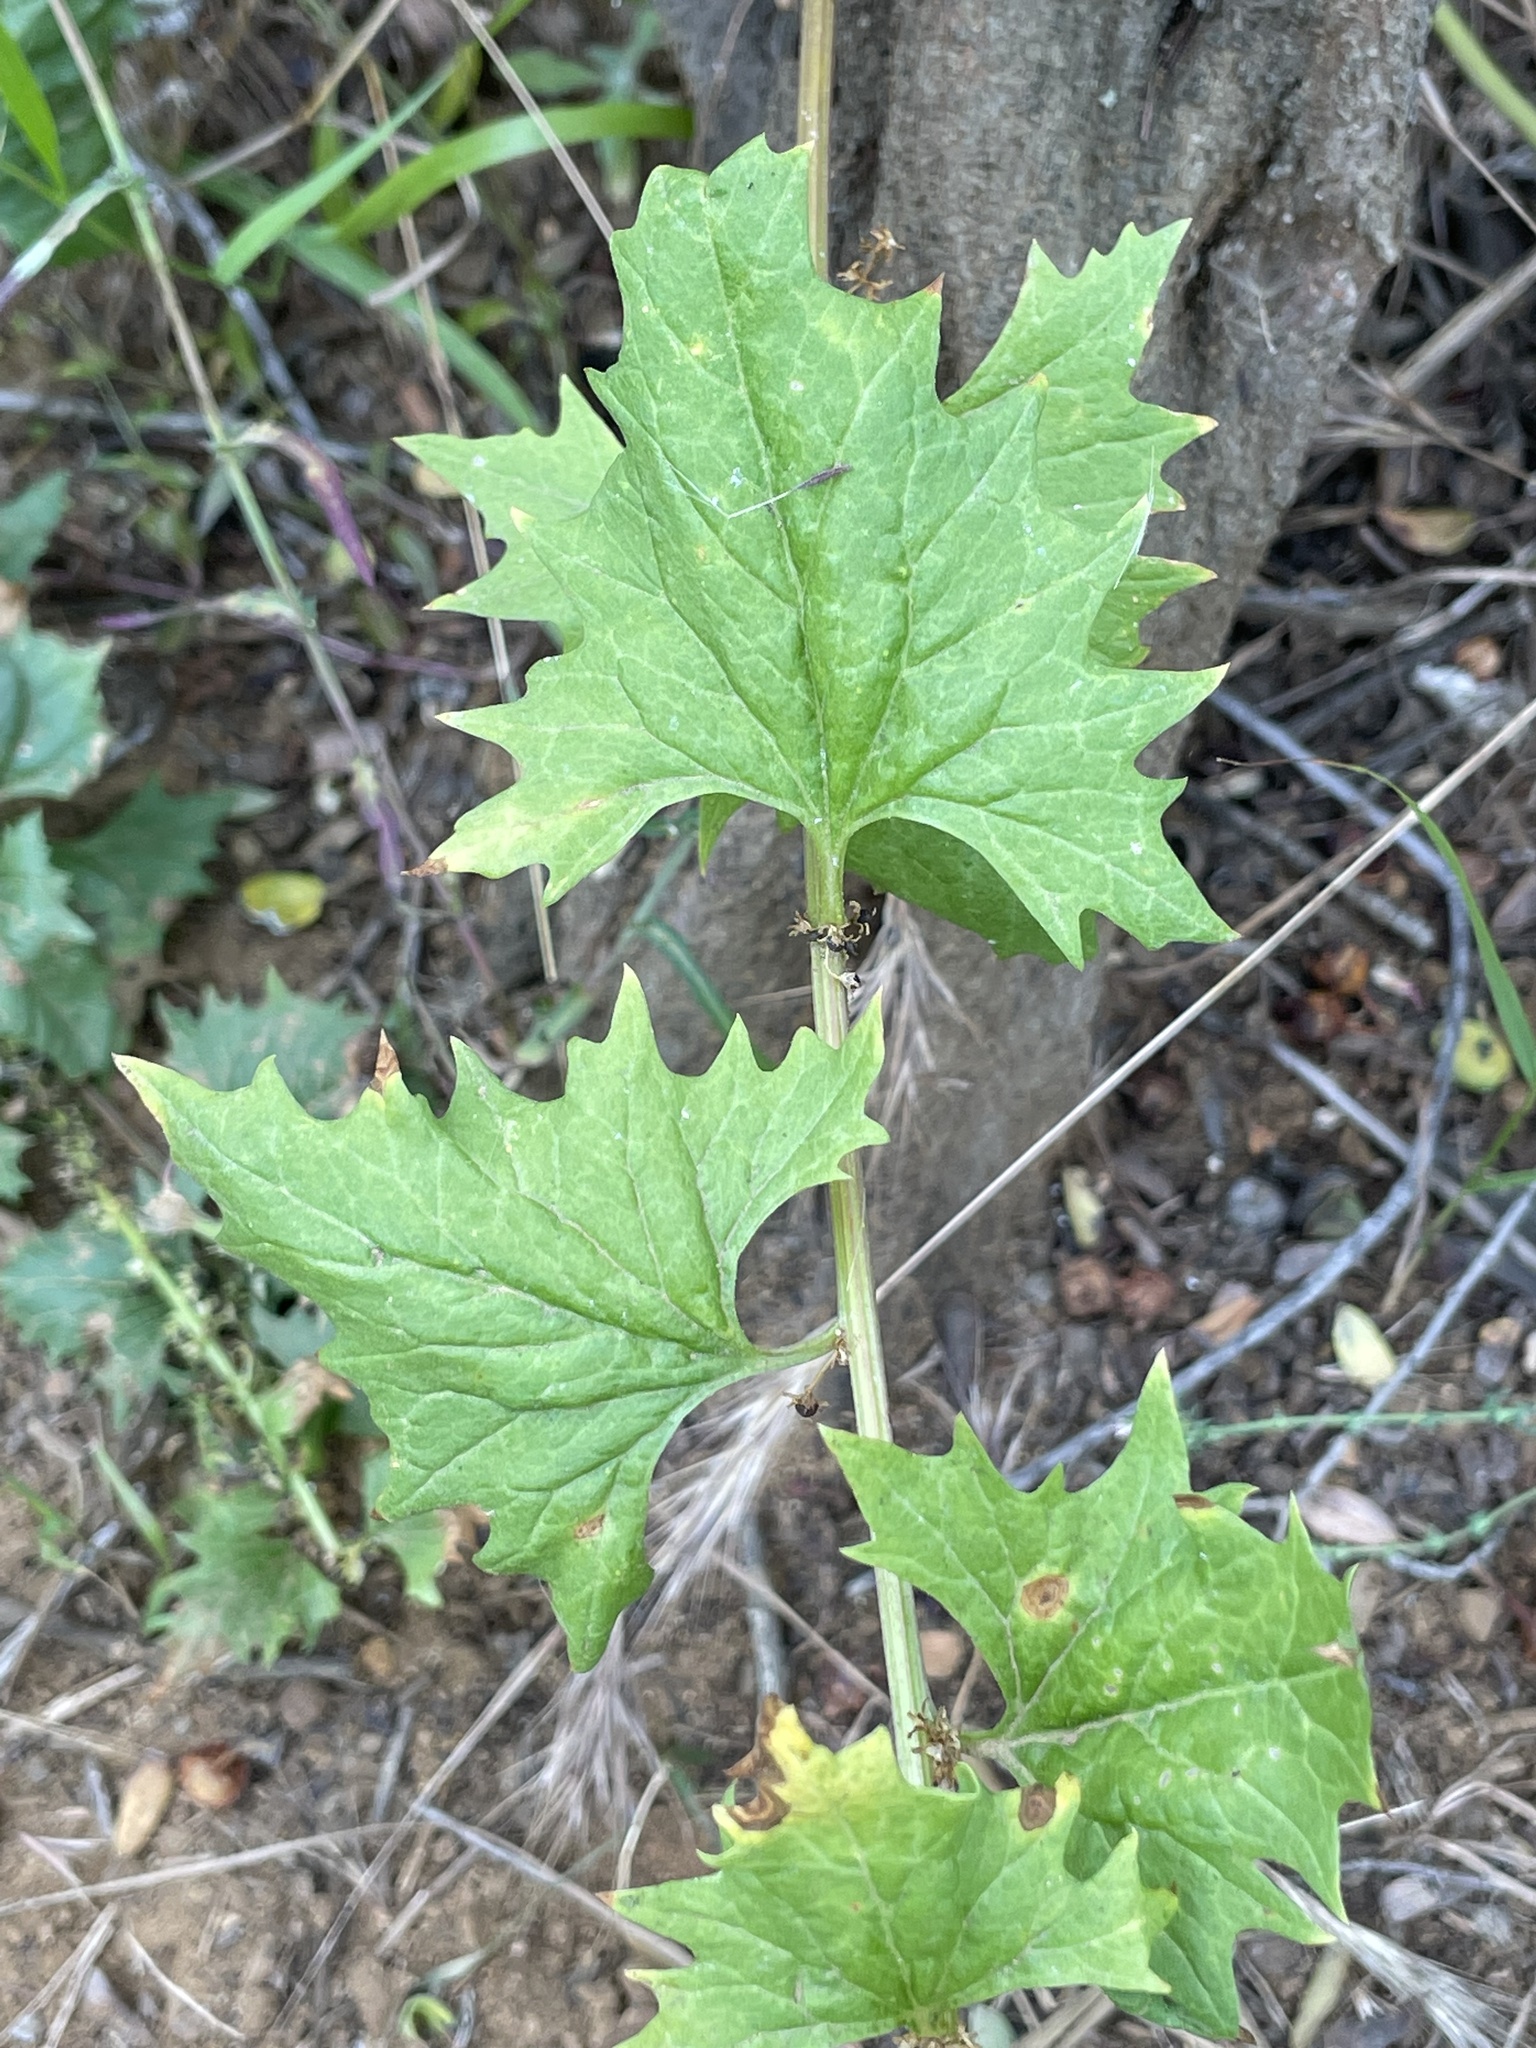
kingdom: Plantae
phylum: Tracheophyta
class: Magnoliopsida
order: Caryophyllales
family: Amaranthaceae
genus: Blitum
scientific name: Blitum californicum
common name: California goosefoot
